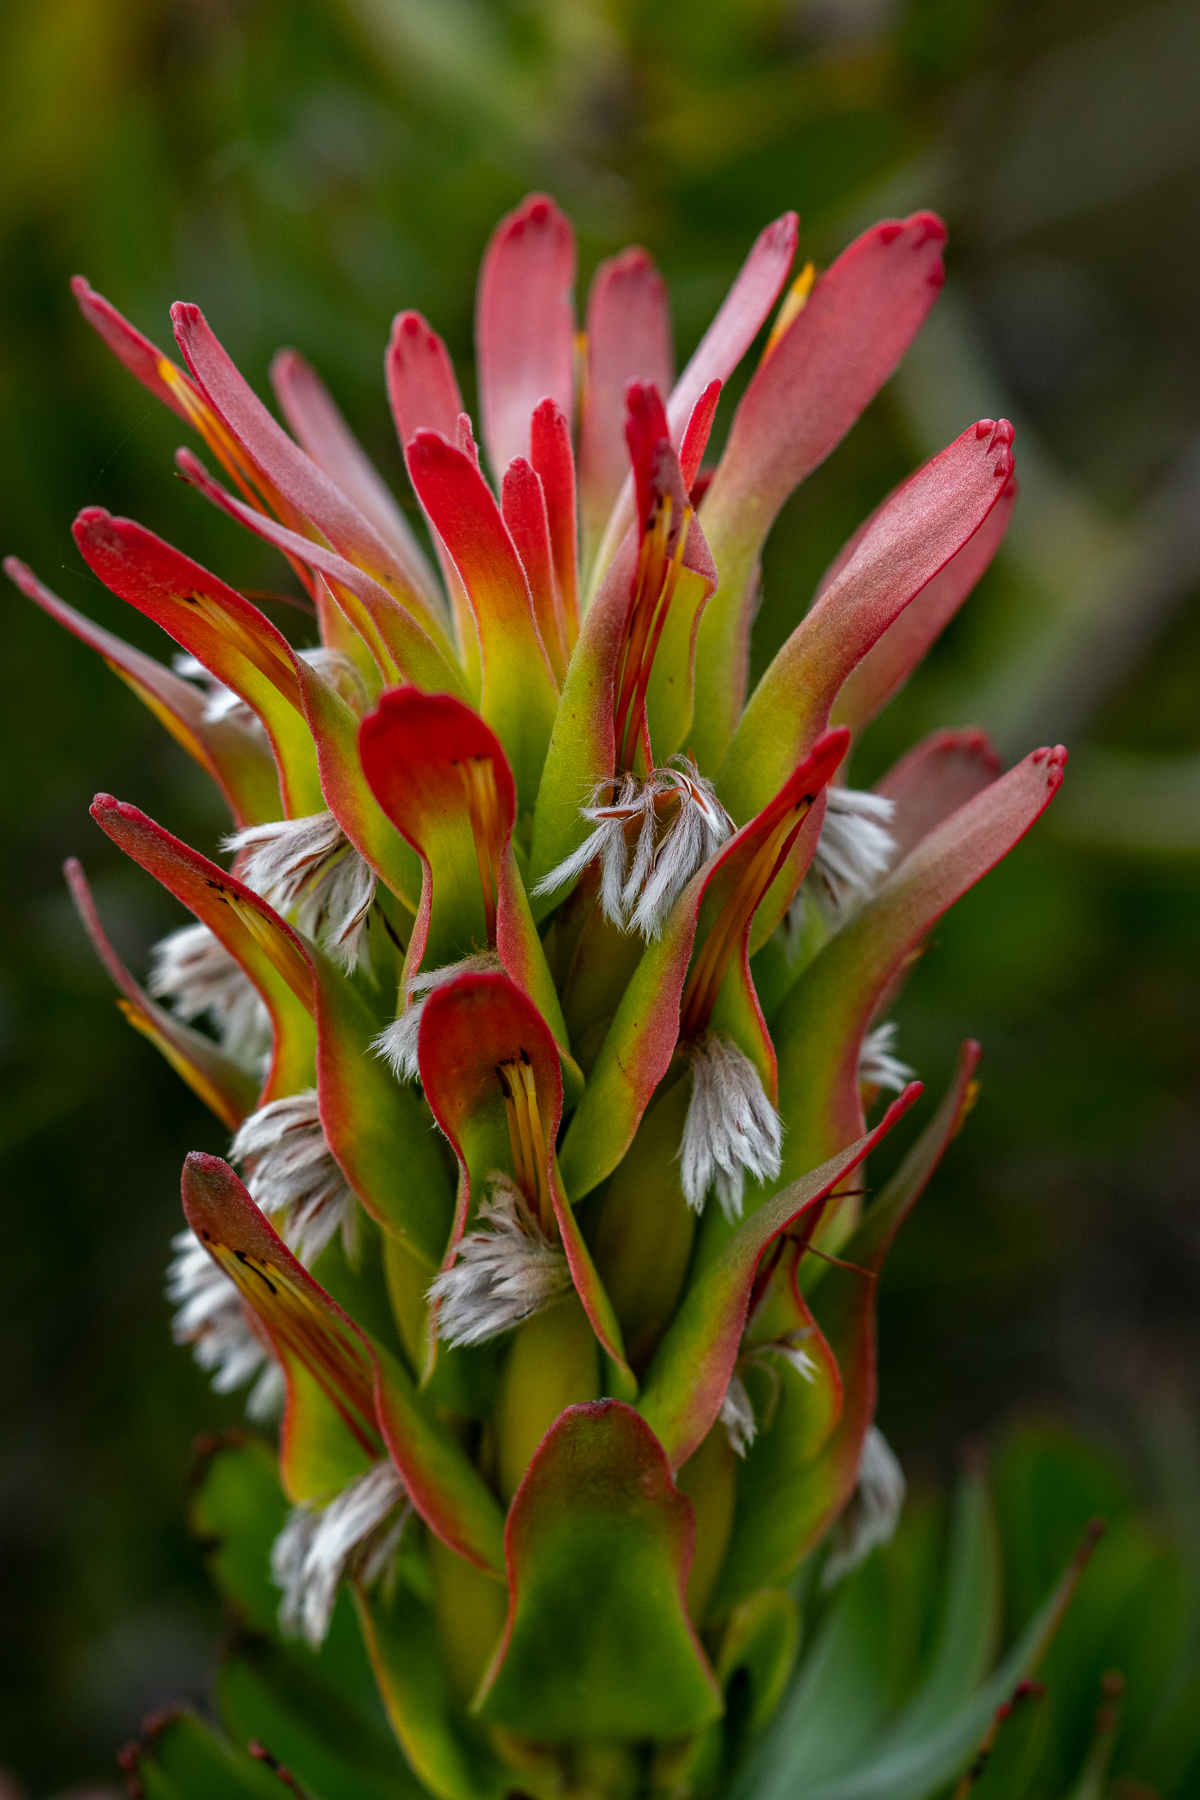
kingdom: Plantae
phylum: Tracheophyta
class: Magnoliopsida
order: Proteales
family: Proteaceae
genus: Mimetes
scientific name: Mimetes cucullatus
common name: Common pagoda
